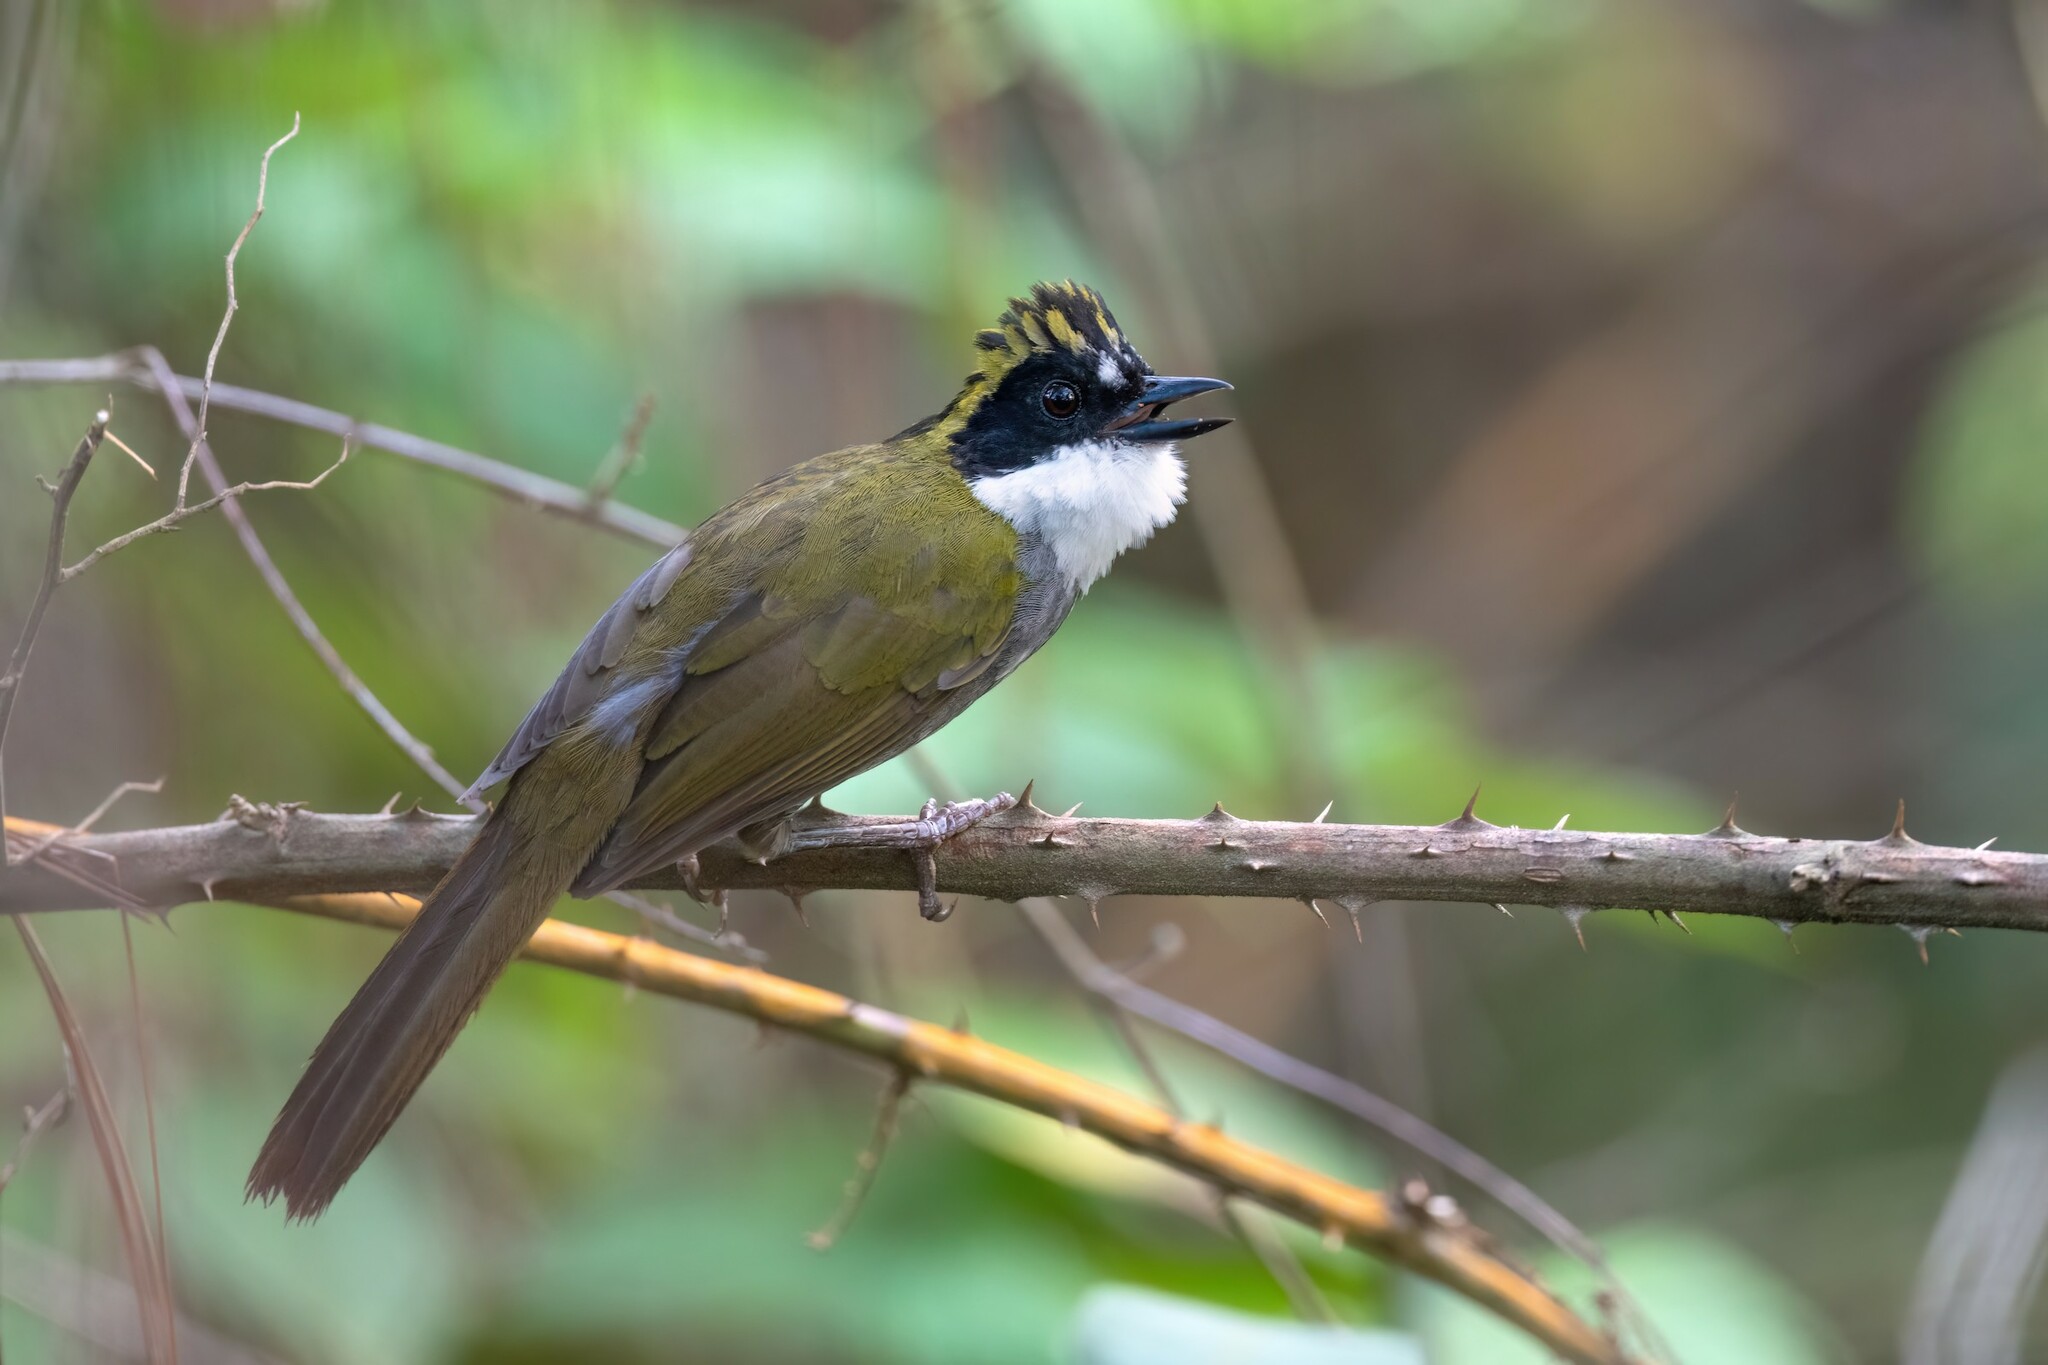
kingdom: Animalia
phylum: Chordata
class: Aves
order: Passeriformes
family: Passerellidae
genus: Arremon
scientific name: Arremon virenticeps
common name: Green-striped brushfinch
